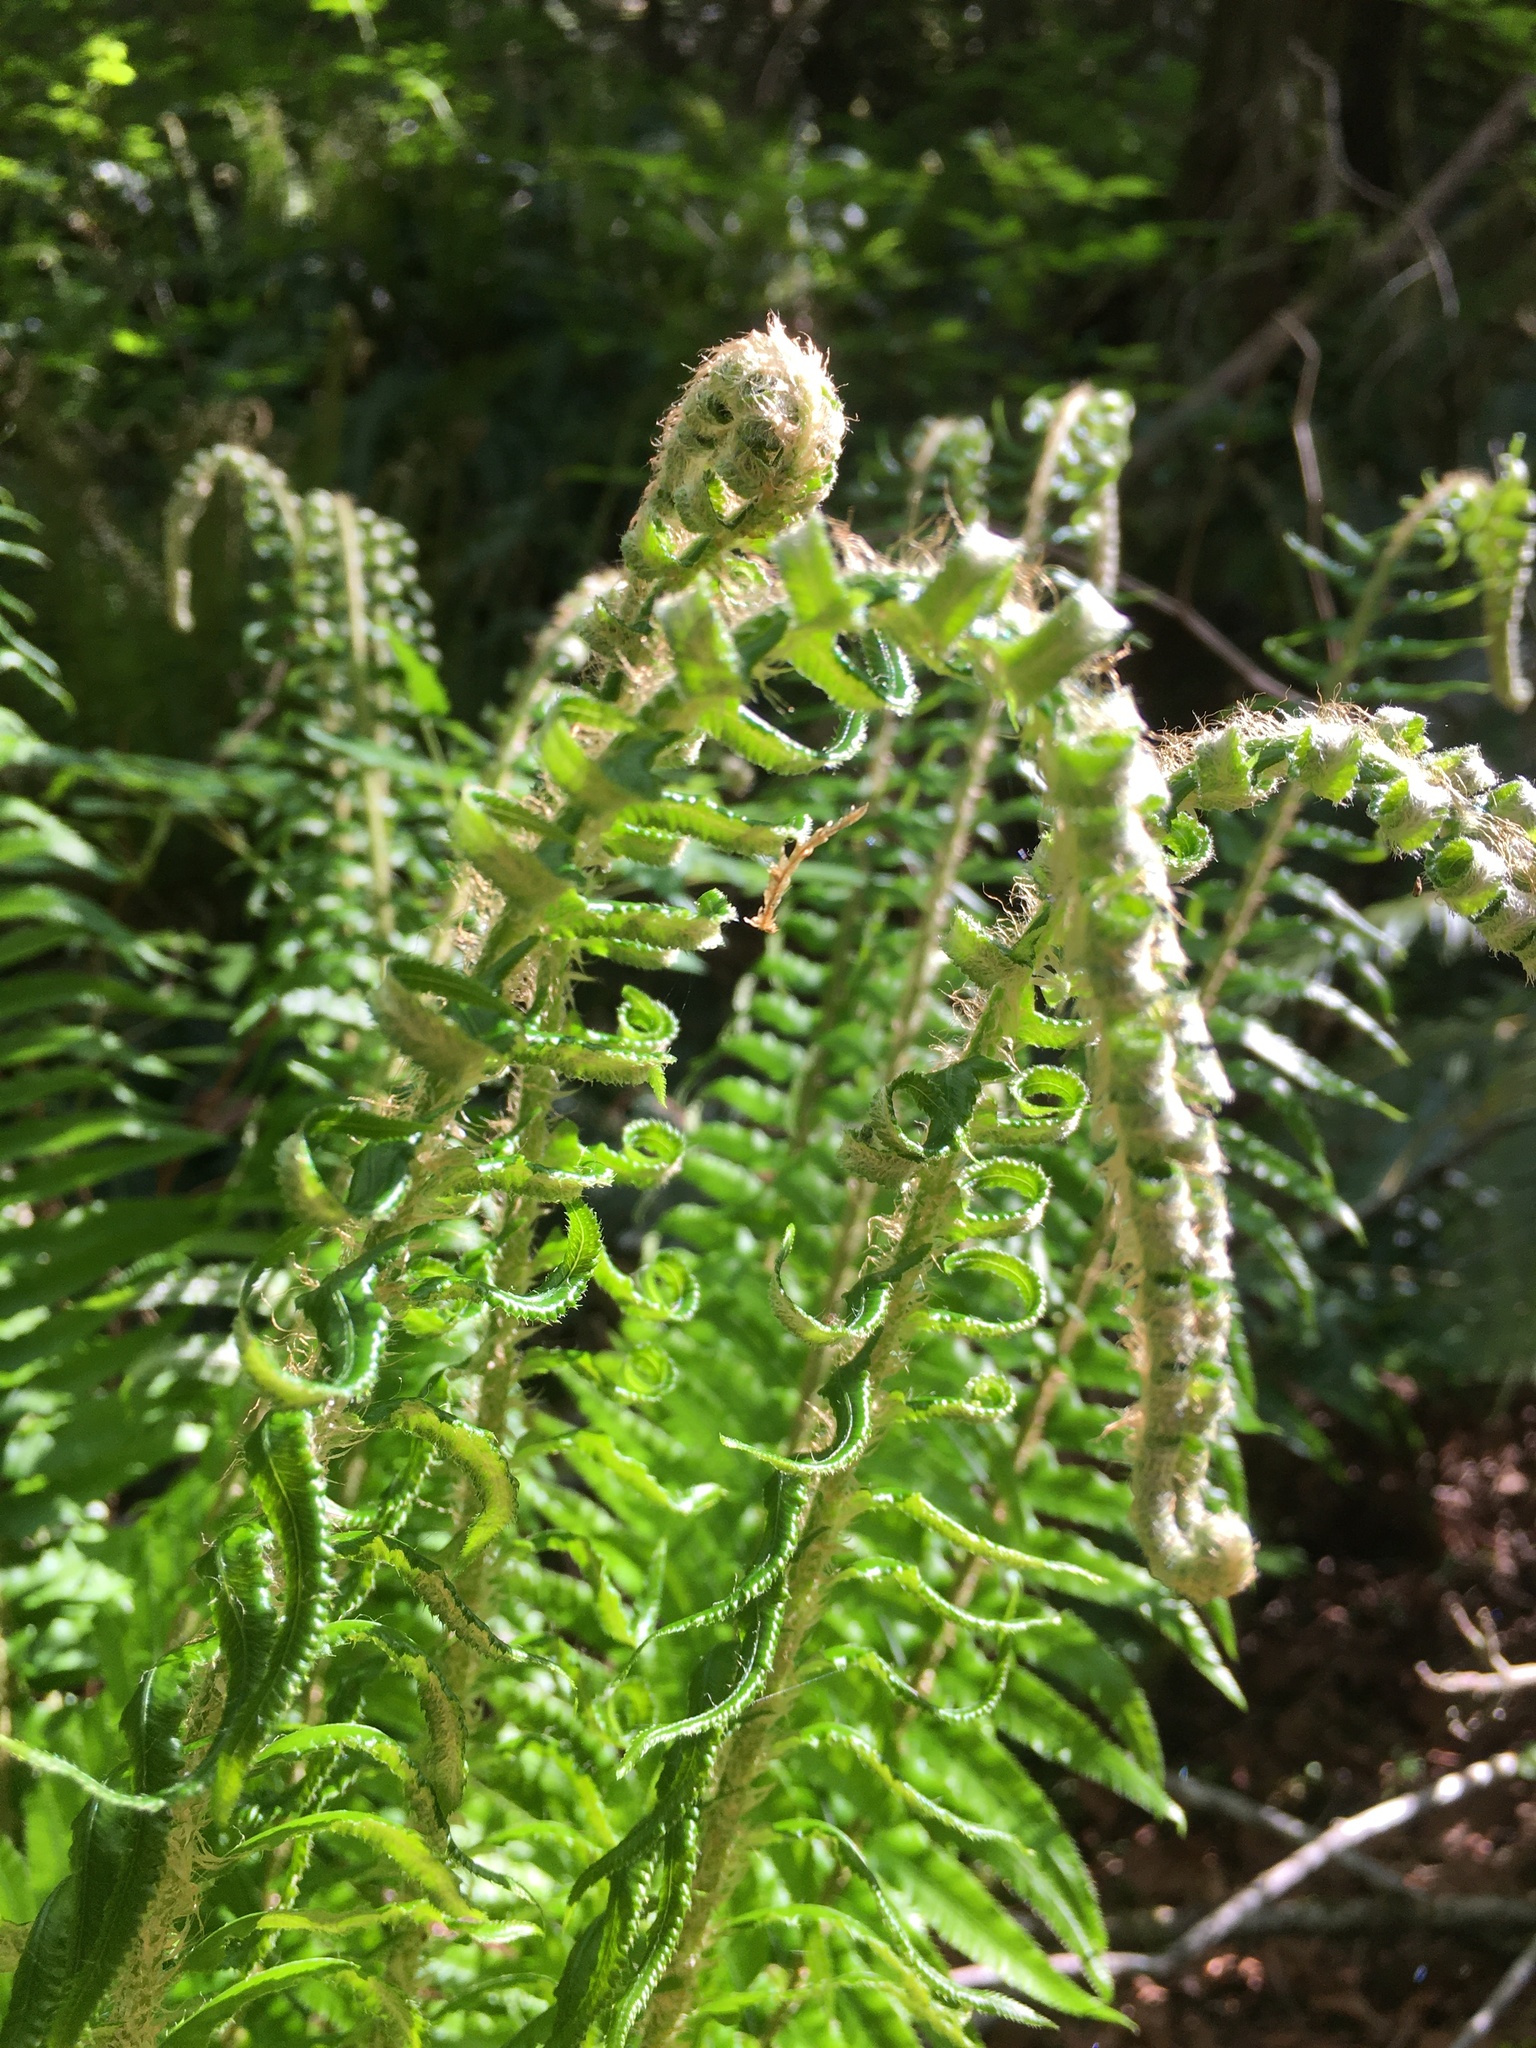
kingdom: Plantae
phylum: Tracheophyta
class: Polypodiopsida
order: Polypodiales
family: Dryopteridaceae
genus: Polystichum
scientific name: Polystichum munitum
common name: Western sword-fern
